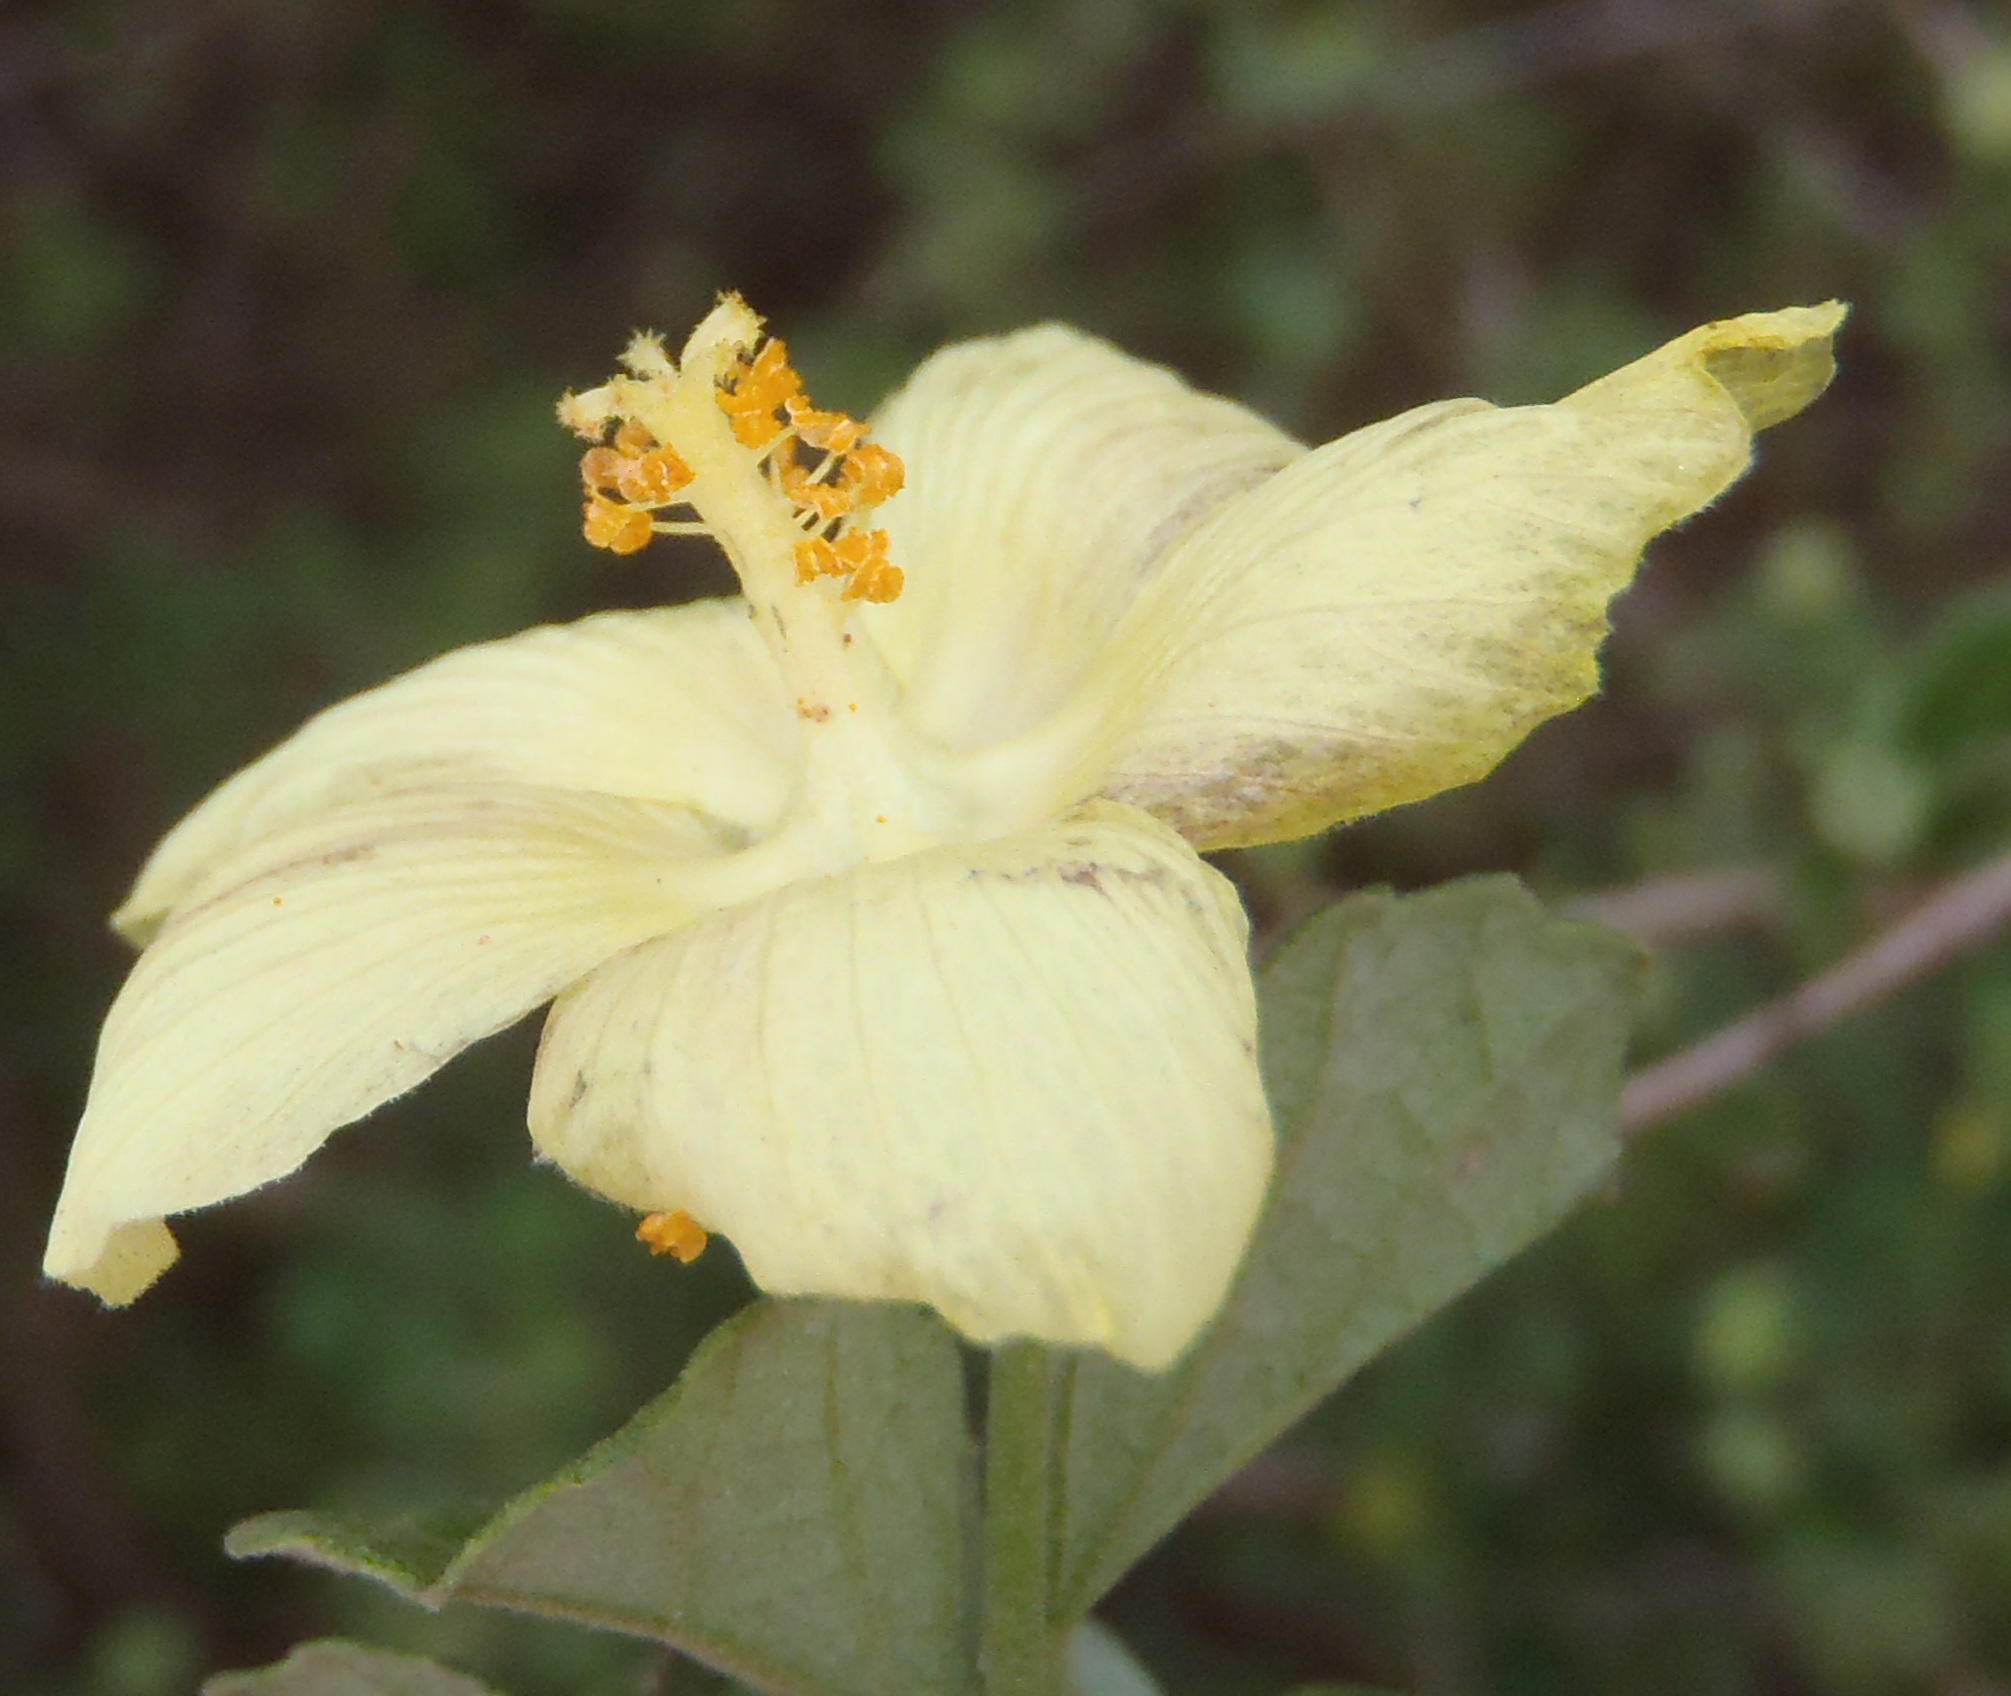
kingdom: Plantae
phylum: Tracheophyta
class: Magnoliopsida
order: Malvales
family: Malvaceae
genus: Pavonia
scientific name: Pavonia praemorsa
